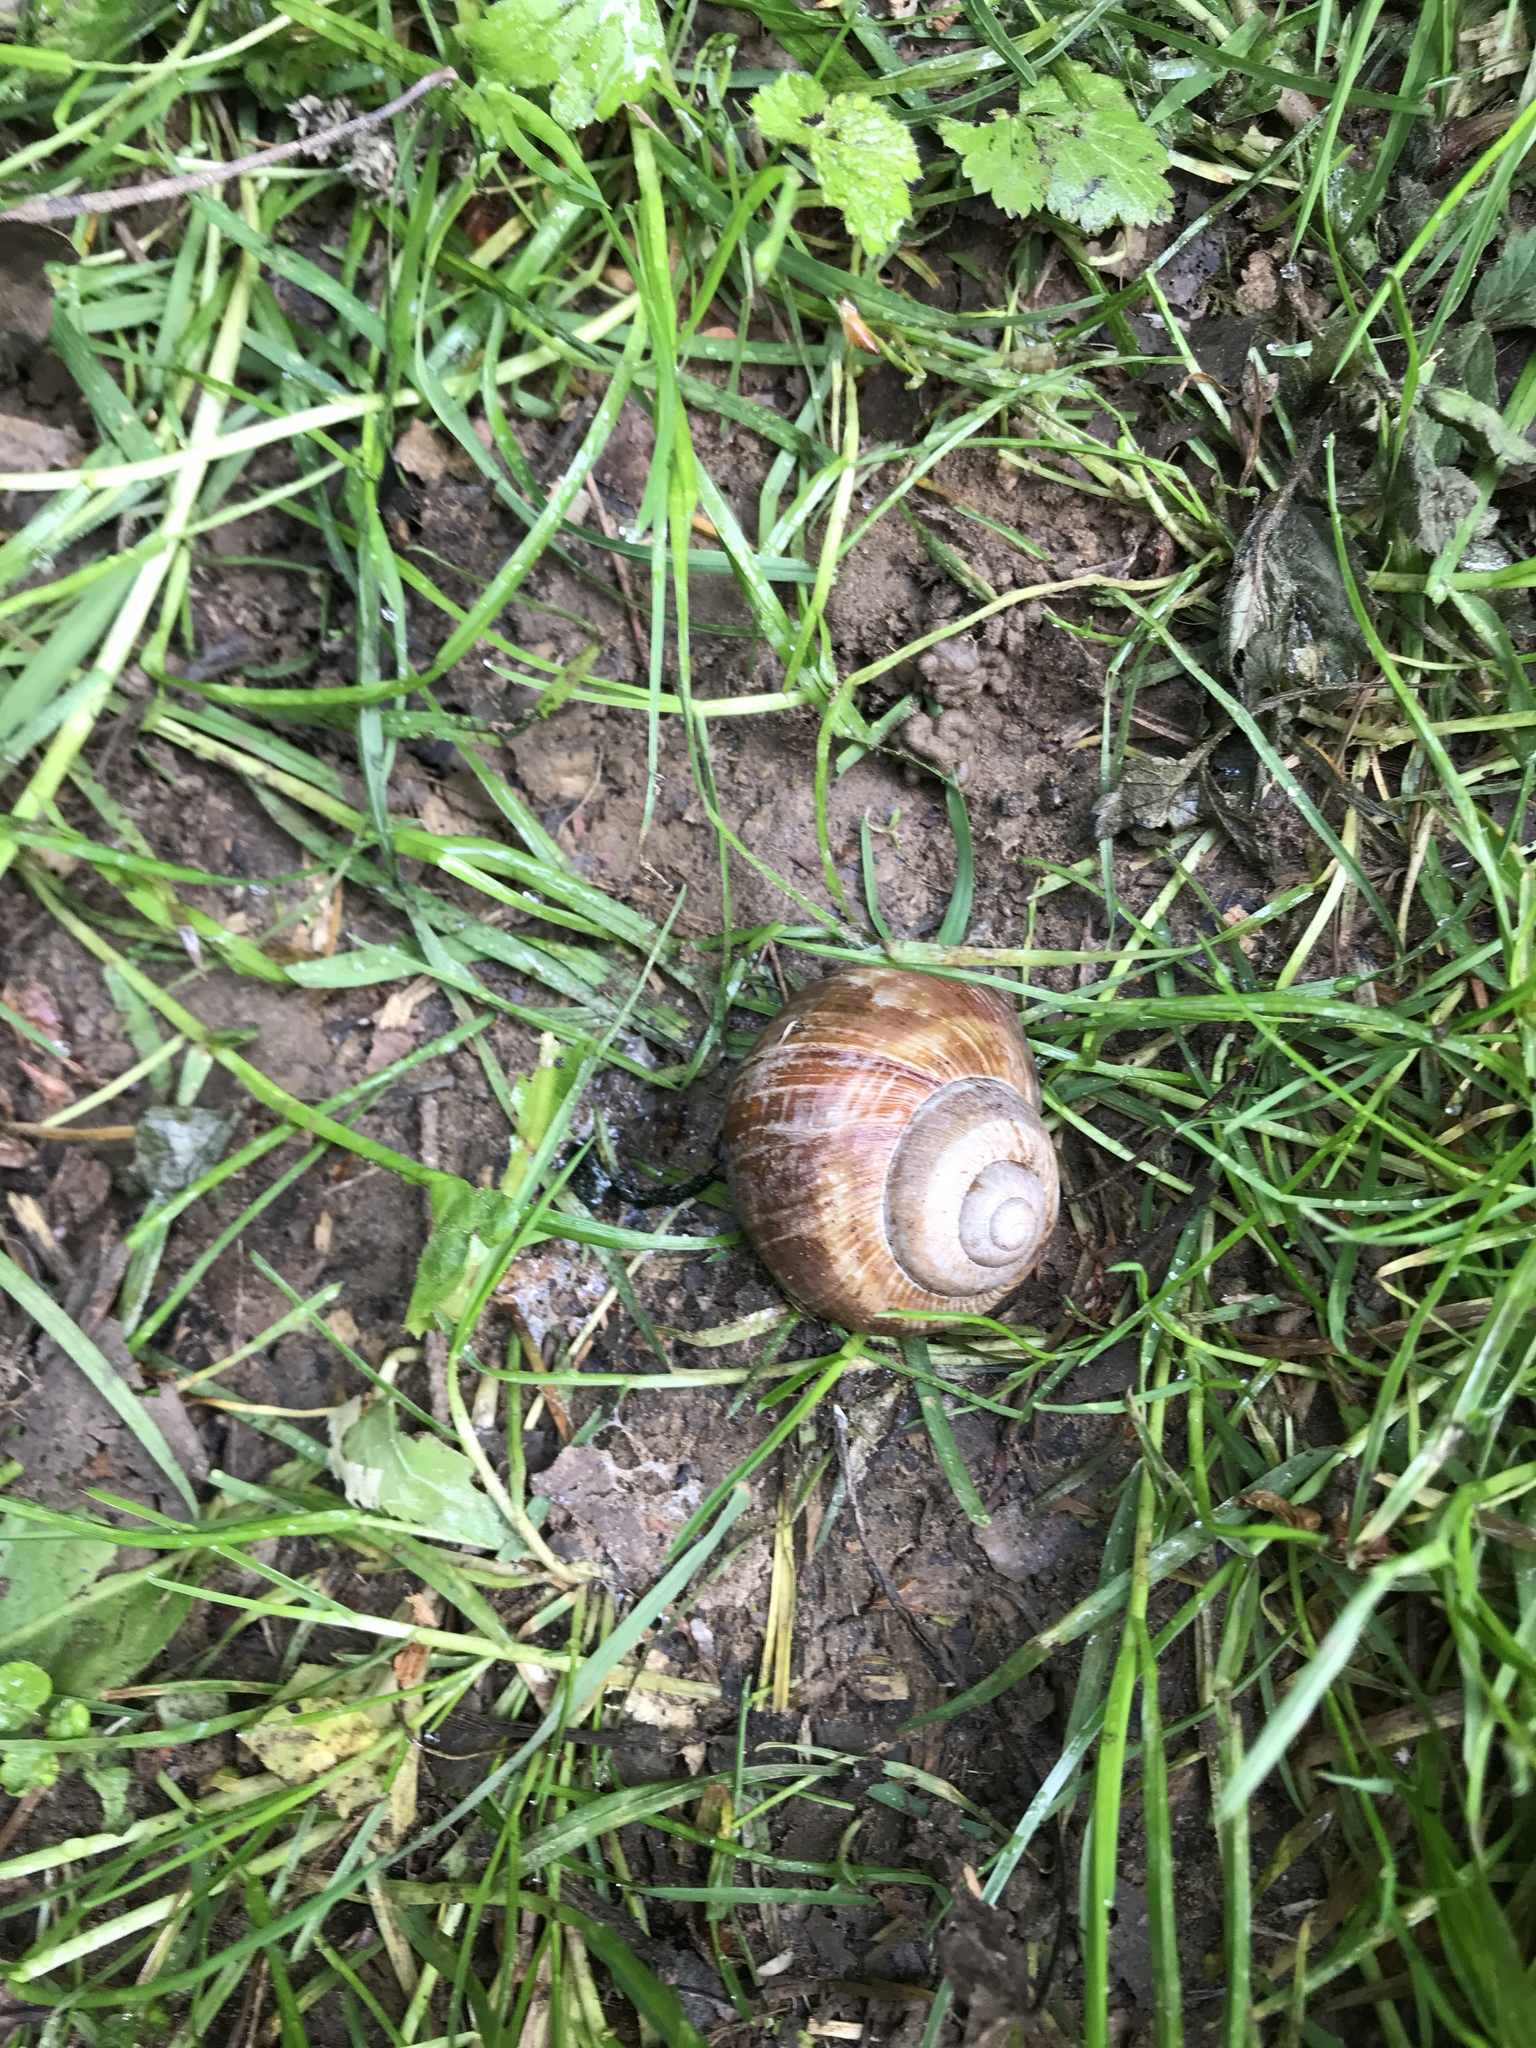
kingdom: Animalia
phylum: Mollusca
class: Gastropoda
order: Stylommatophora
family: Helicidae
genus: Helix
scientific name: Helix pomatia
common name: Roman snail
